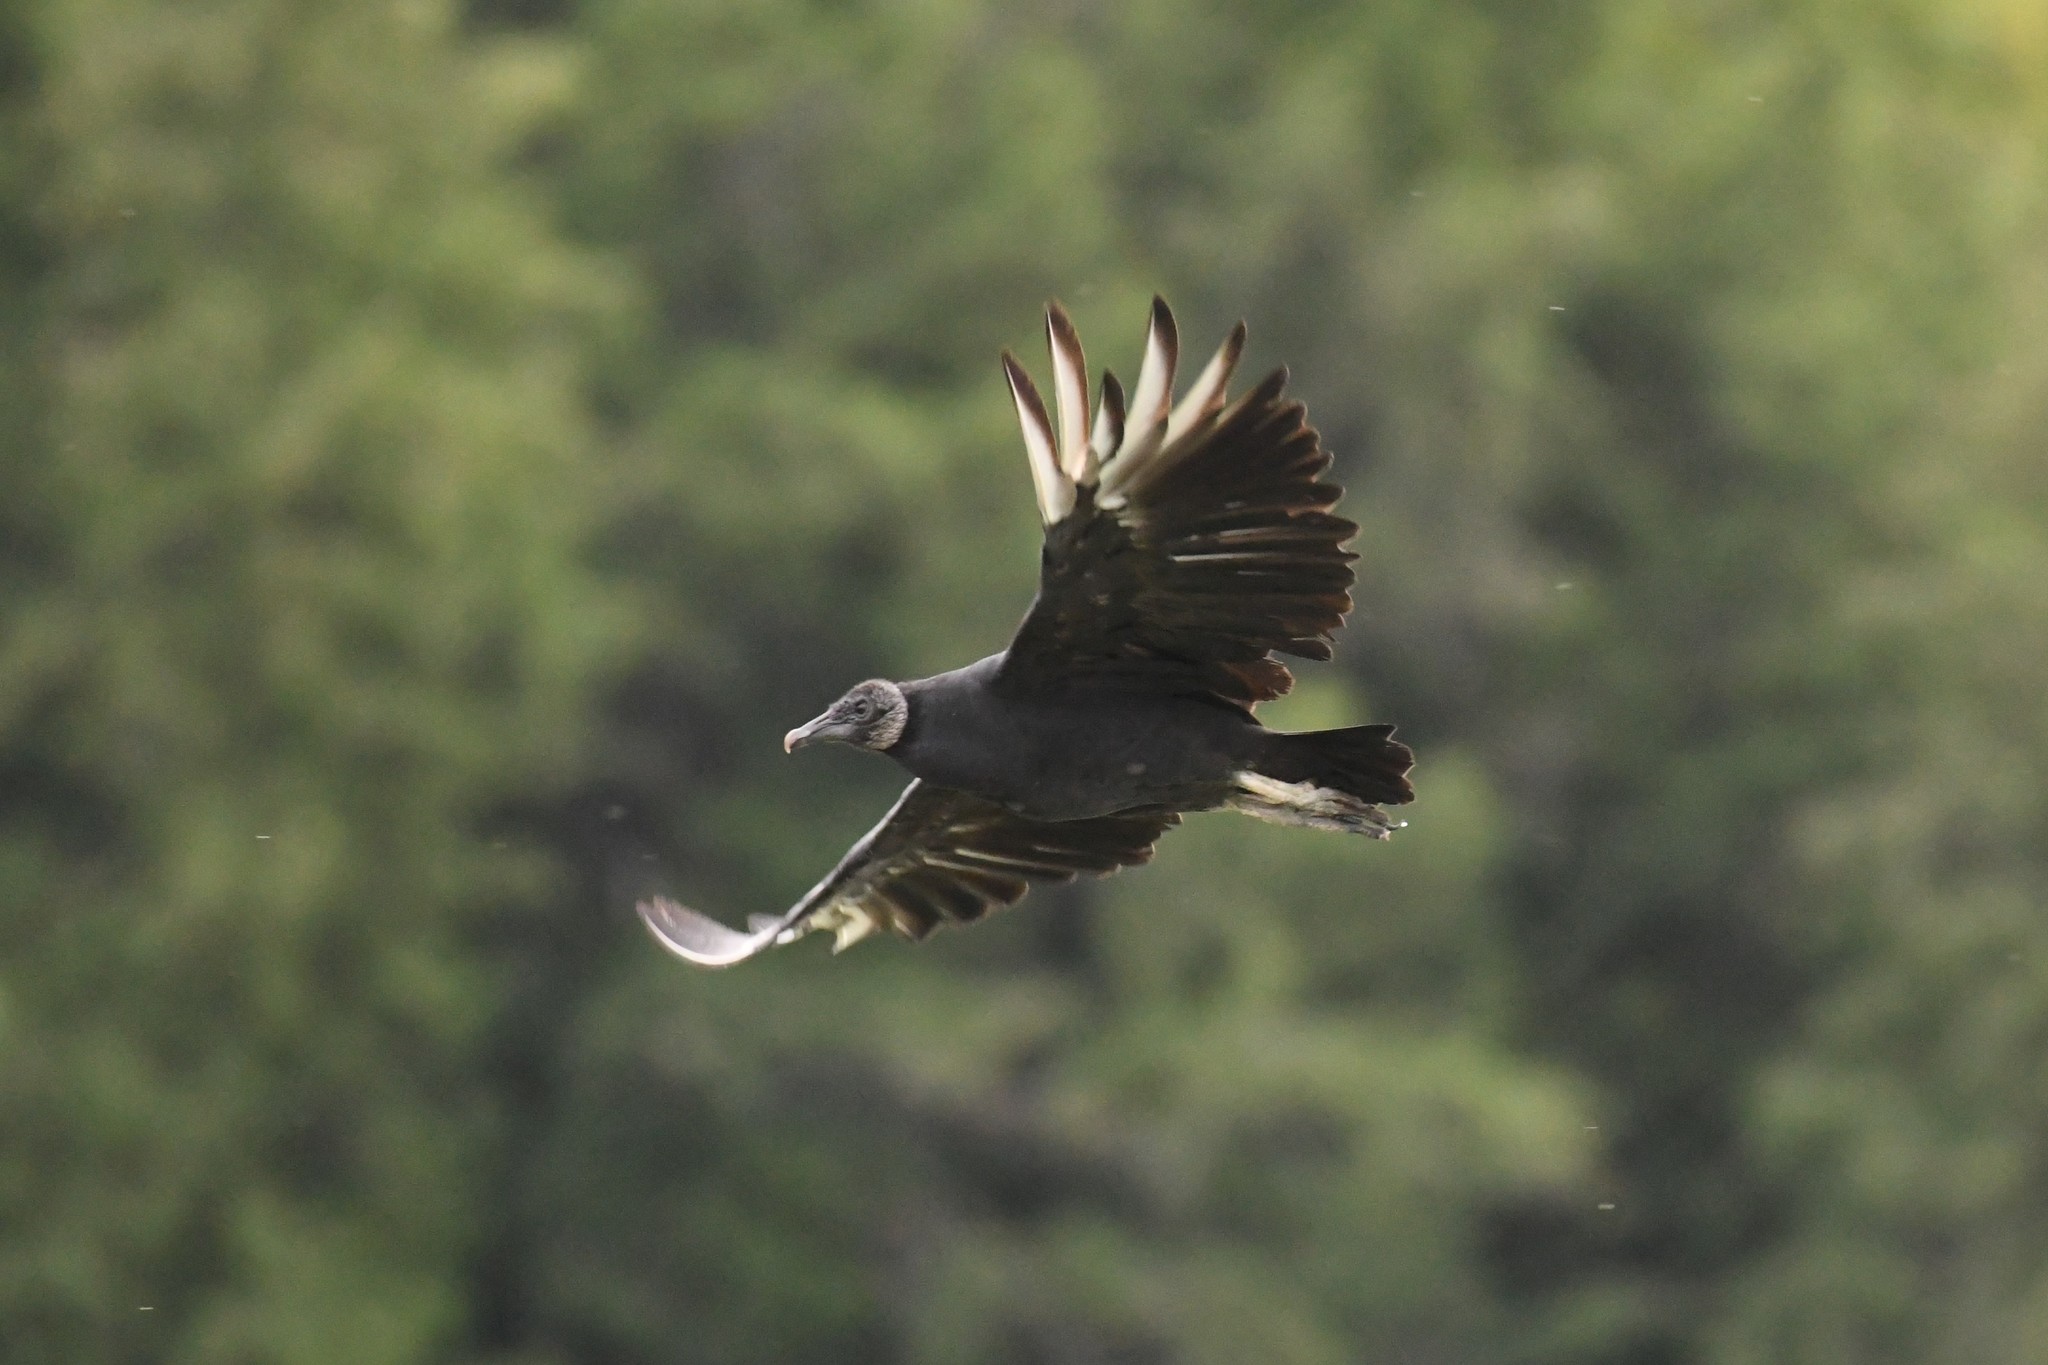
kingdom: Animalia
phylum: Chordata
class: Aves
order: Accipitriformes
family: Cathartidae
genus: Coragyps
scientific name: Coragyps atratus
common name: Black vulture
